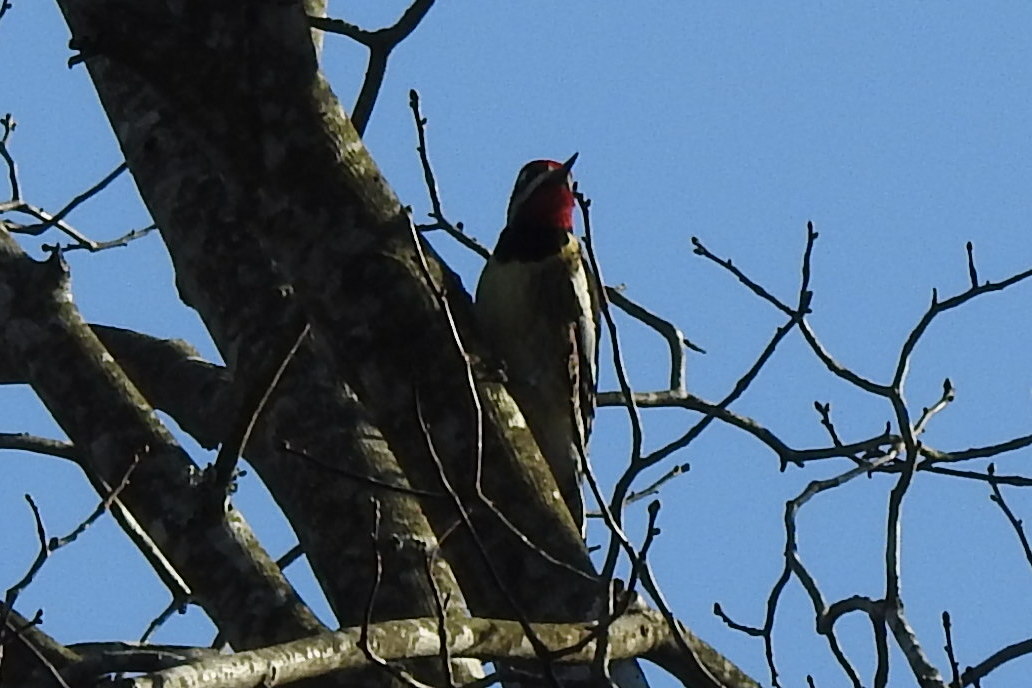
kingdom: Animalia
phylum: Chordata
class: Aves
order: Piciformes
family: Picidae
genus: Sphyrapicus
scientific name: Sphyrapicus varius
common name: Yellow-bellied sapsucker
